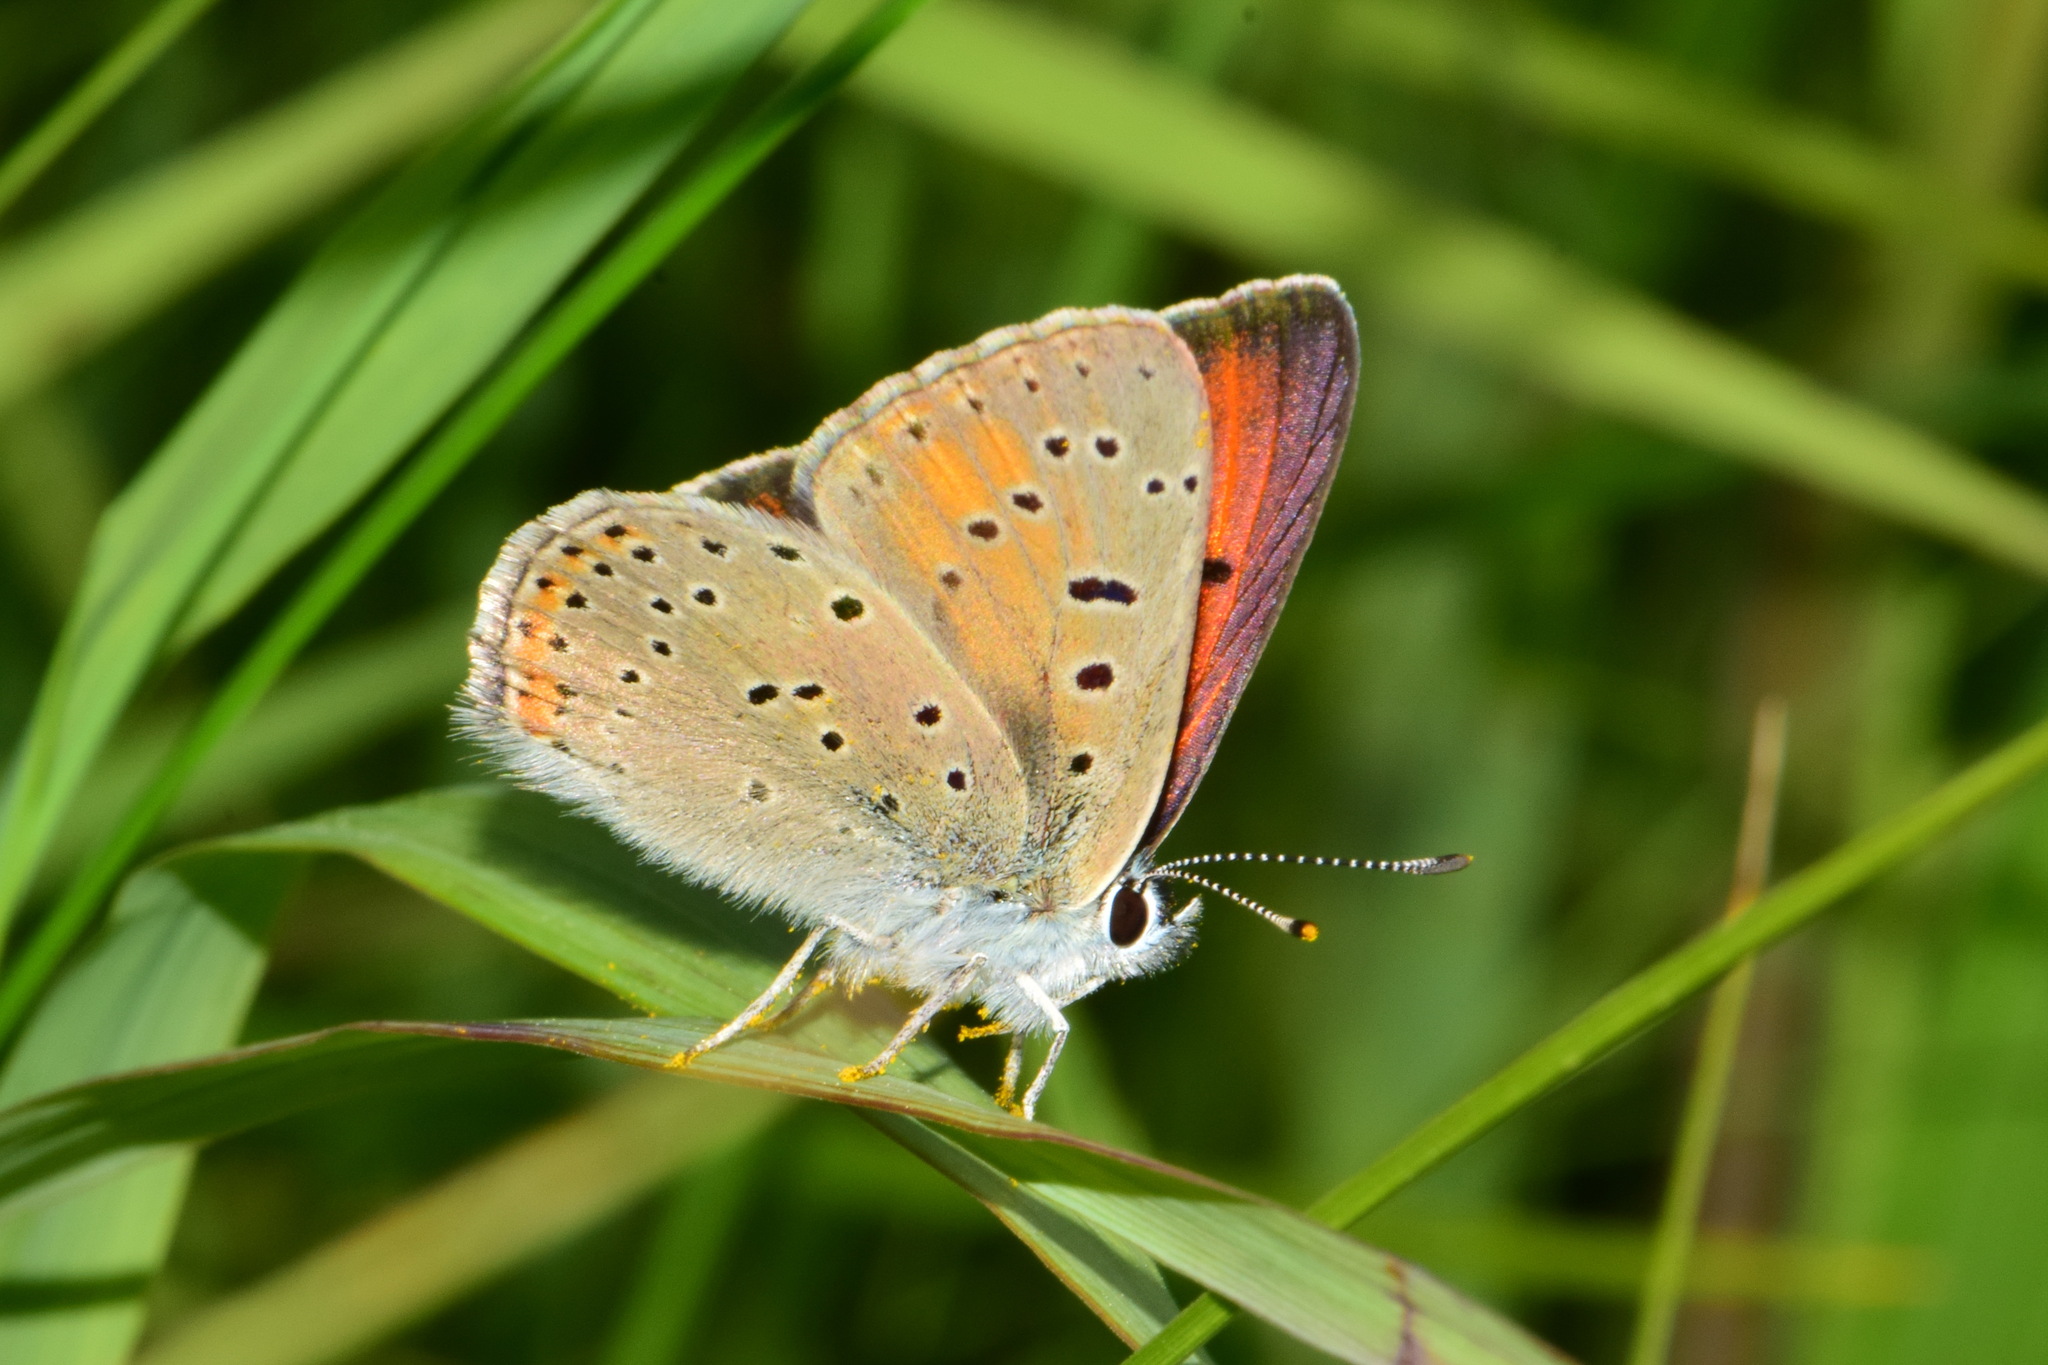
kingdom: Animalia
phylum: Arthropoda
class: Insecta
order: Lepidoptera
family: Lycaenidae
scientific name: Lycaenidae
